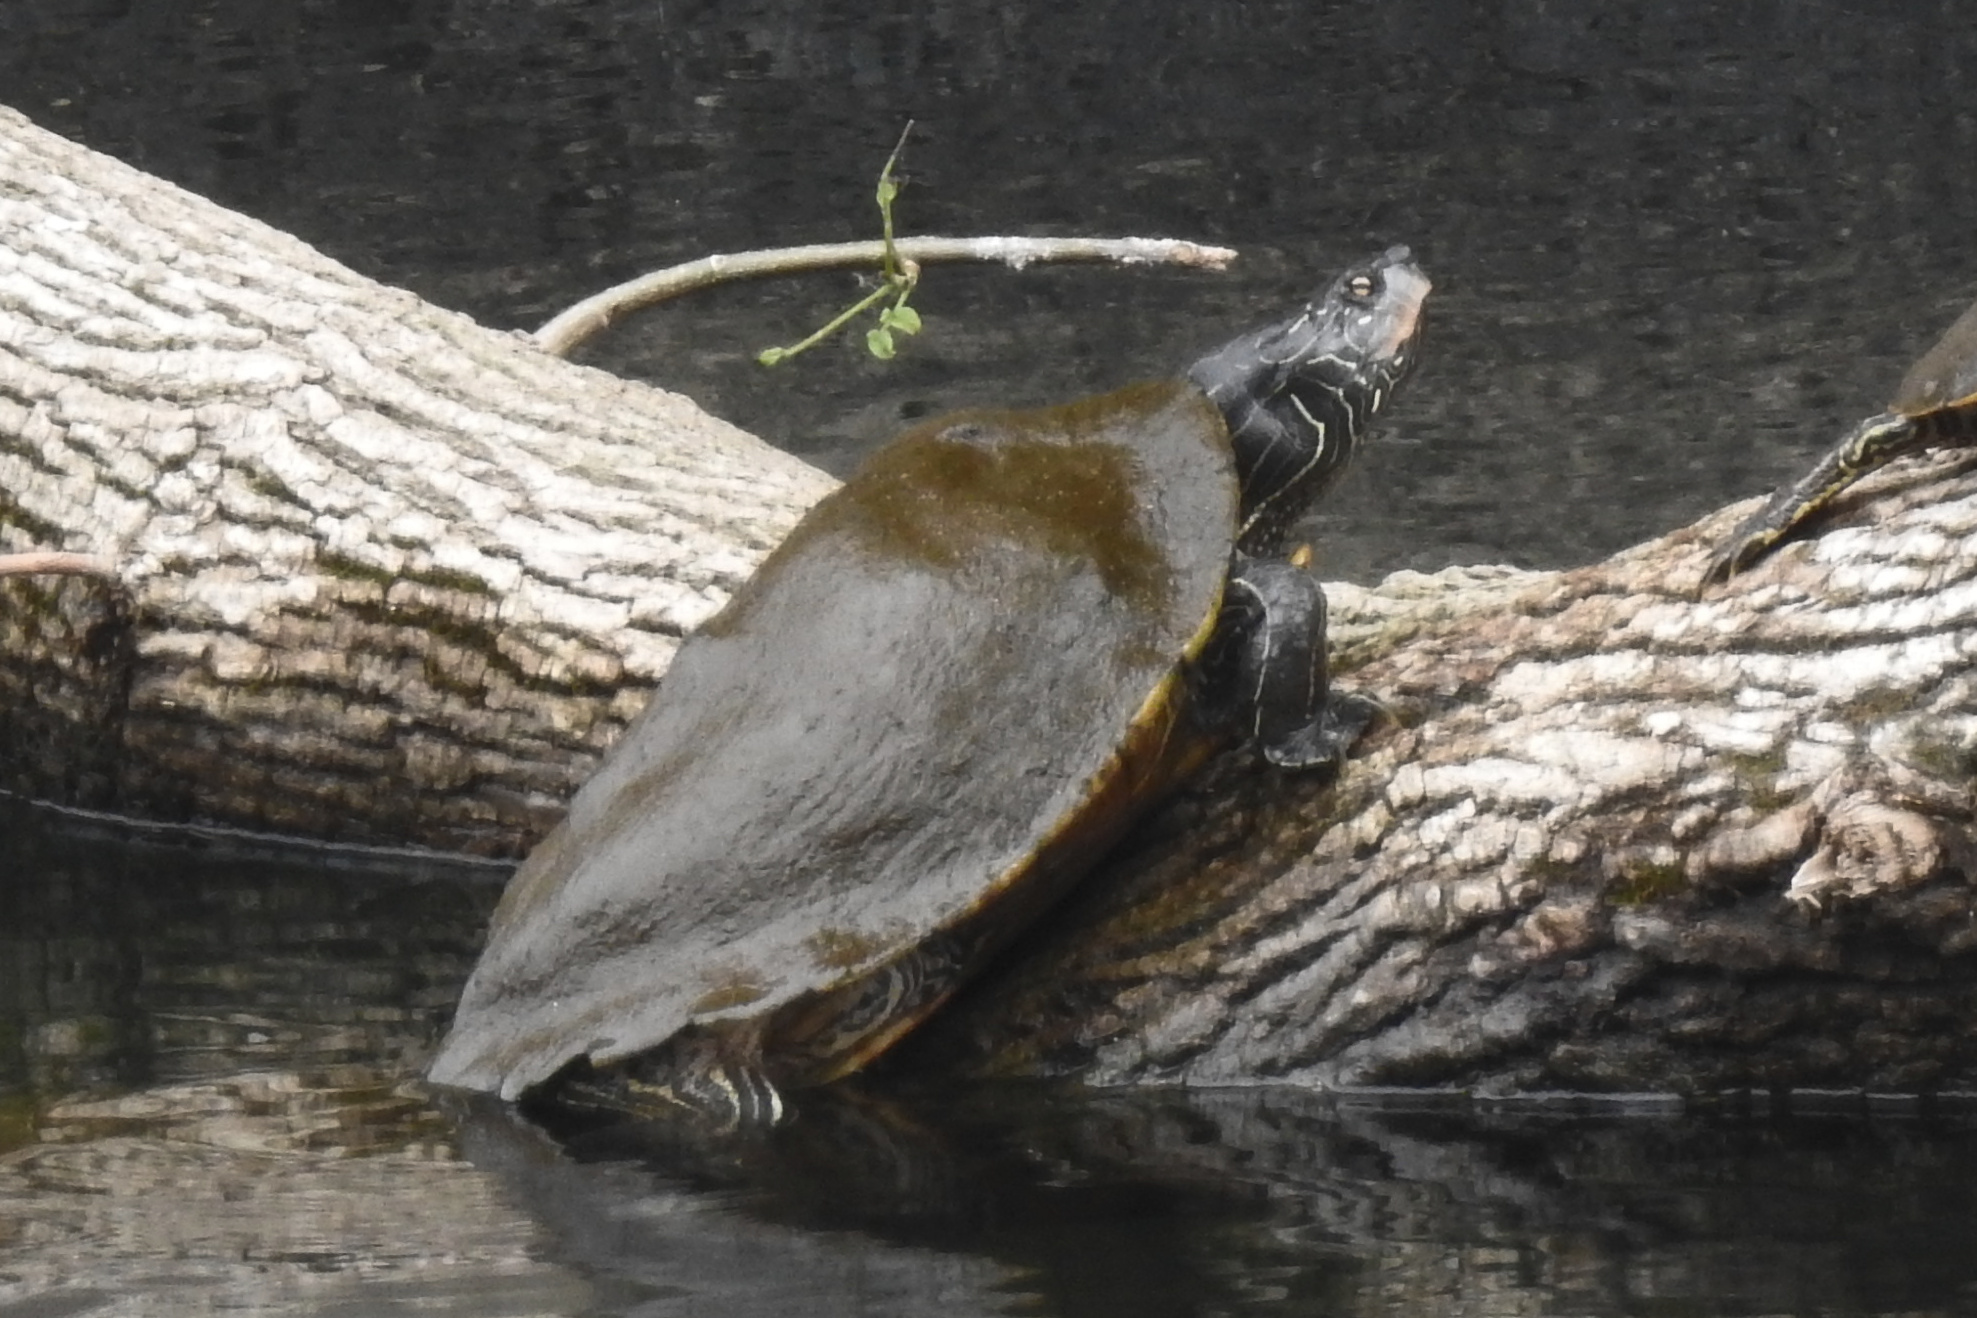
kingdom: Animalia
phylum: Chordata
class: Testudines
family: Emydidae
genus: Graptemys
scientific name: Graptemys geographica
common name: Common map turtle
